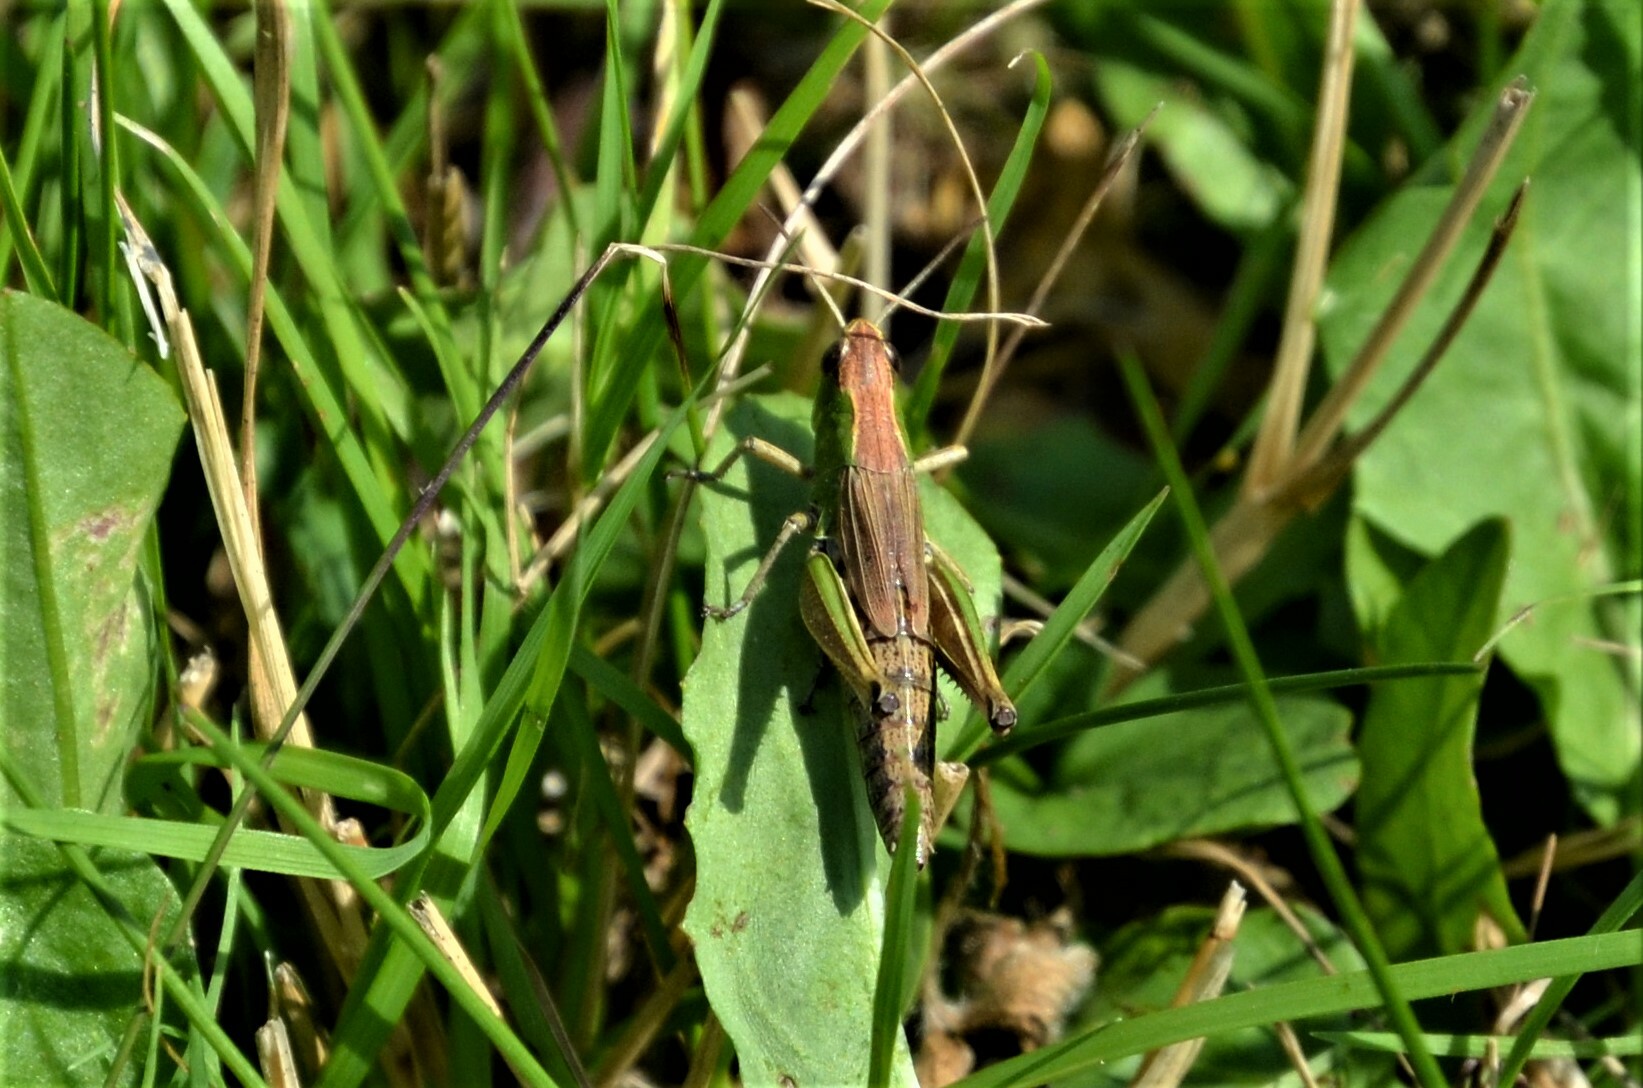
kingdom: Animalia
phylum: Arthropoda
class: Insecta
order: Orthoptera
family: Acrididae
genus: Pseudochorthippus
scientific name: Pseudochorthippus parallelus
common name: Meadow grasshopper
